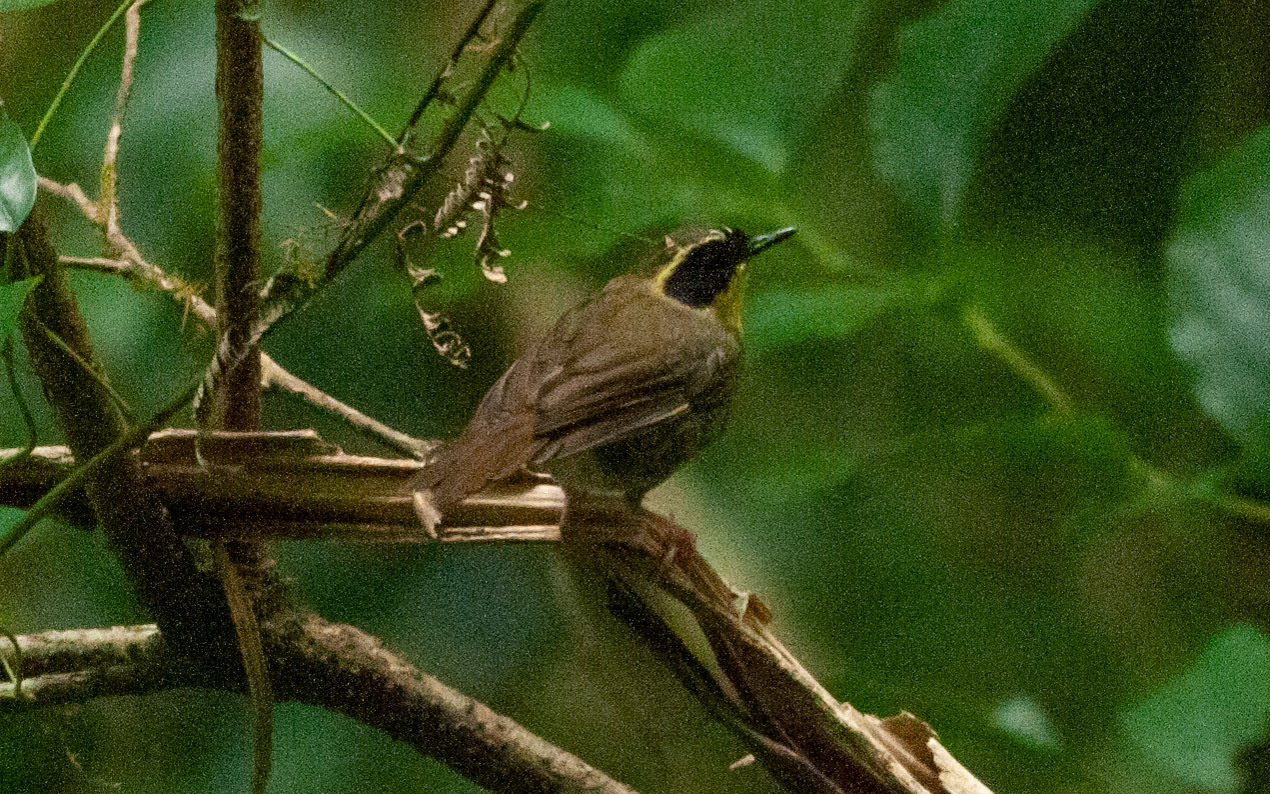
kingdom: Animalia
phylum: Chordata
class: Aves
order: Passeriformes
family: Acanthizidae
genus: Sericornis
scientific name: Sericornis citreogularis
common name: Yellow-throated scrubwren
